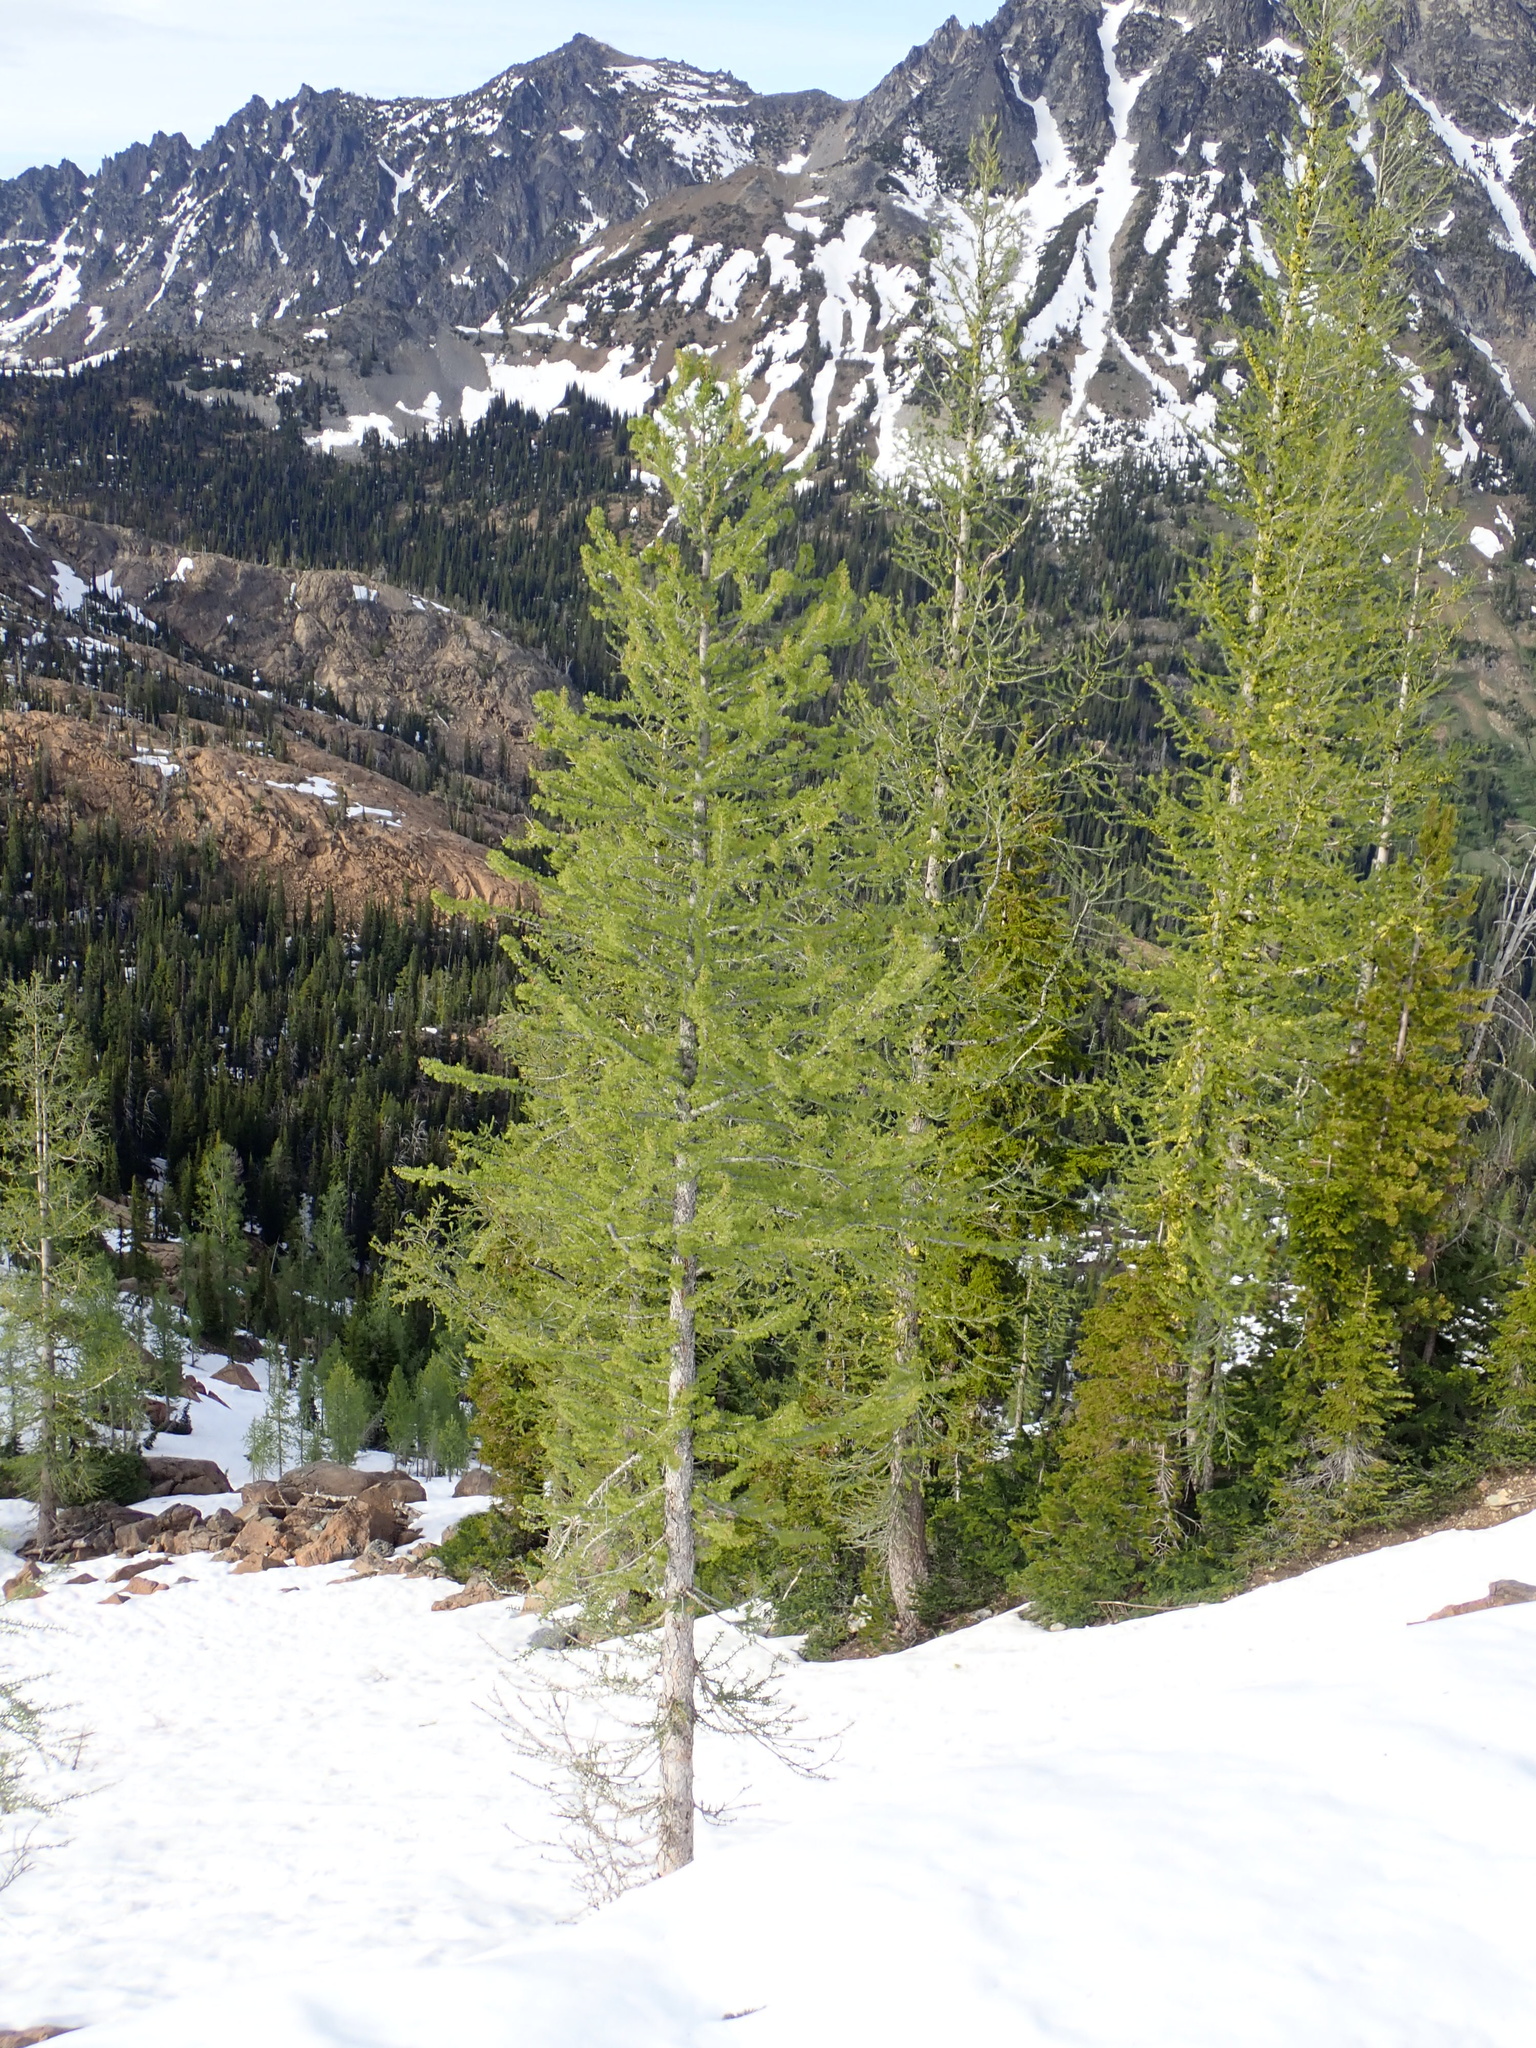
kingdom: Plantae
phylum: Tracheophyta
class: Pinopsida
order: Pinales
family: Pinaceae
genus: Larix
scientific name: Larix lyallii
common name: Alpine larch
